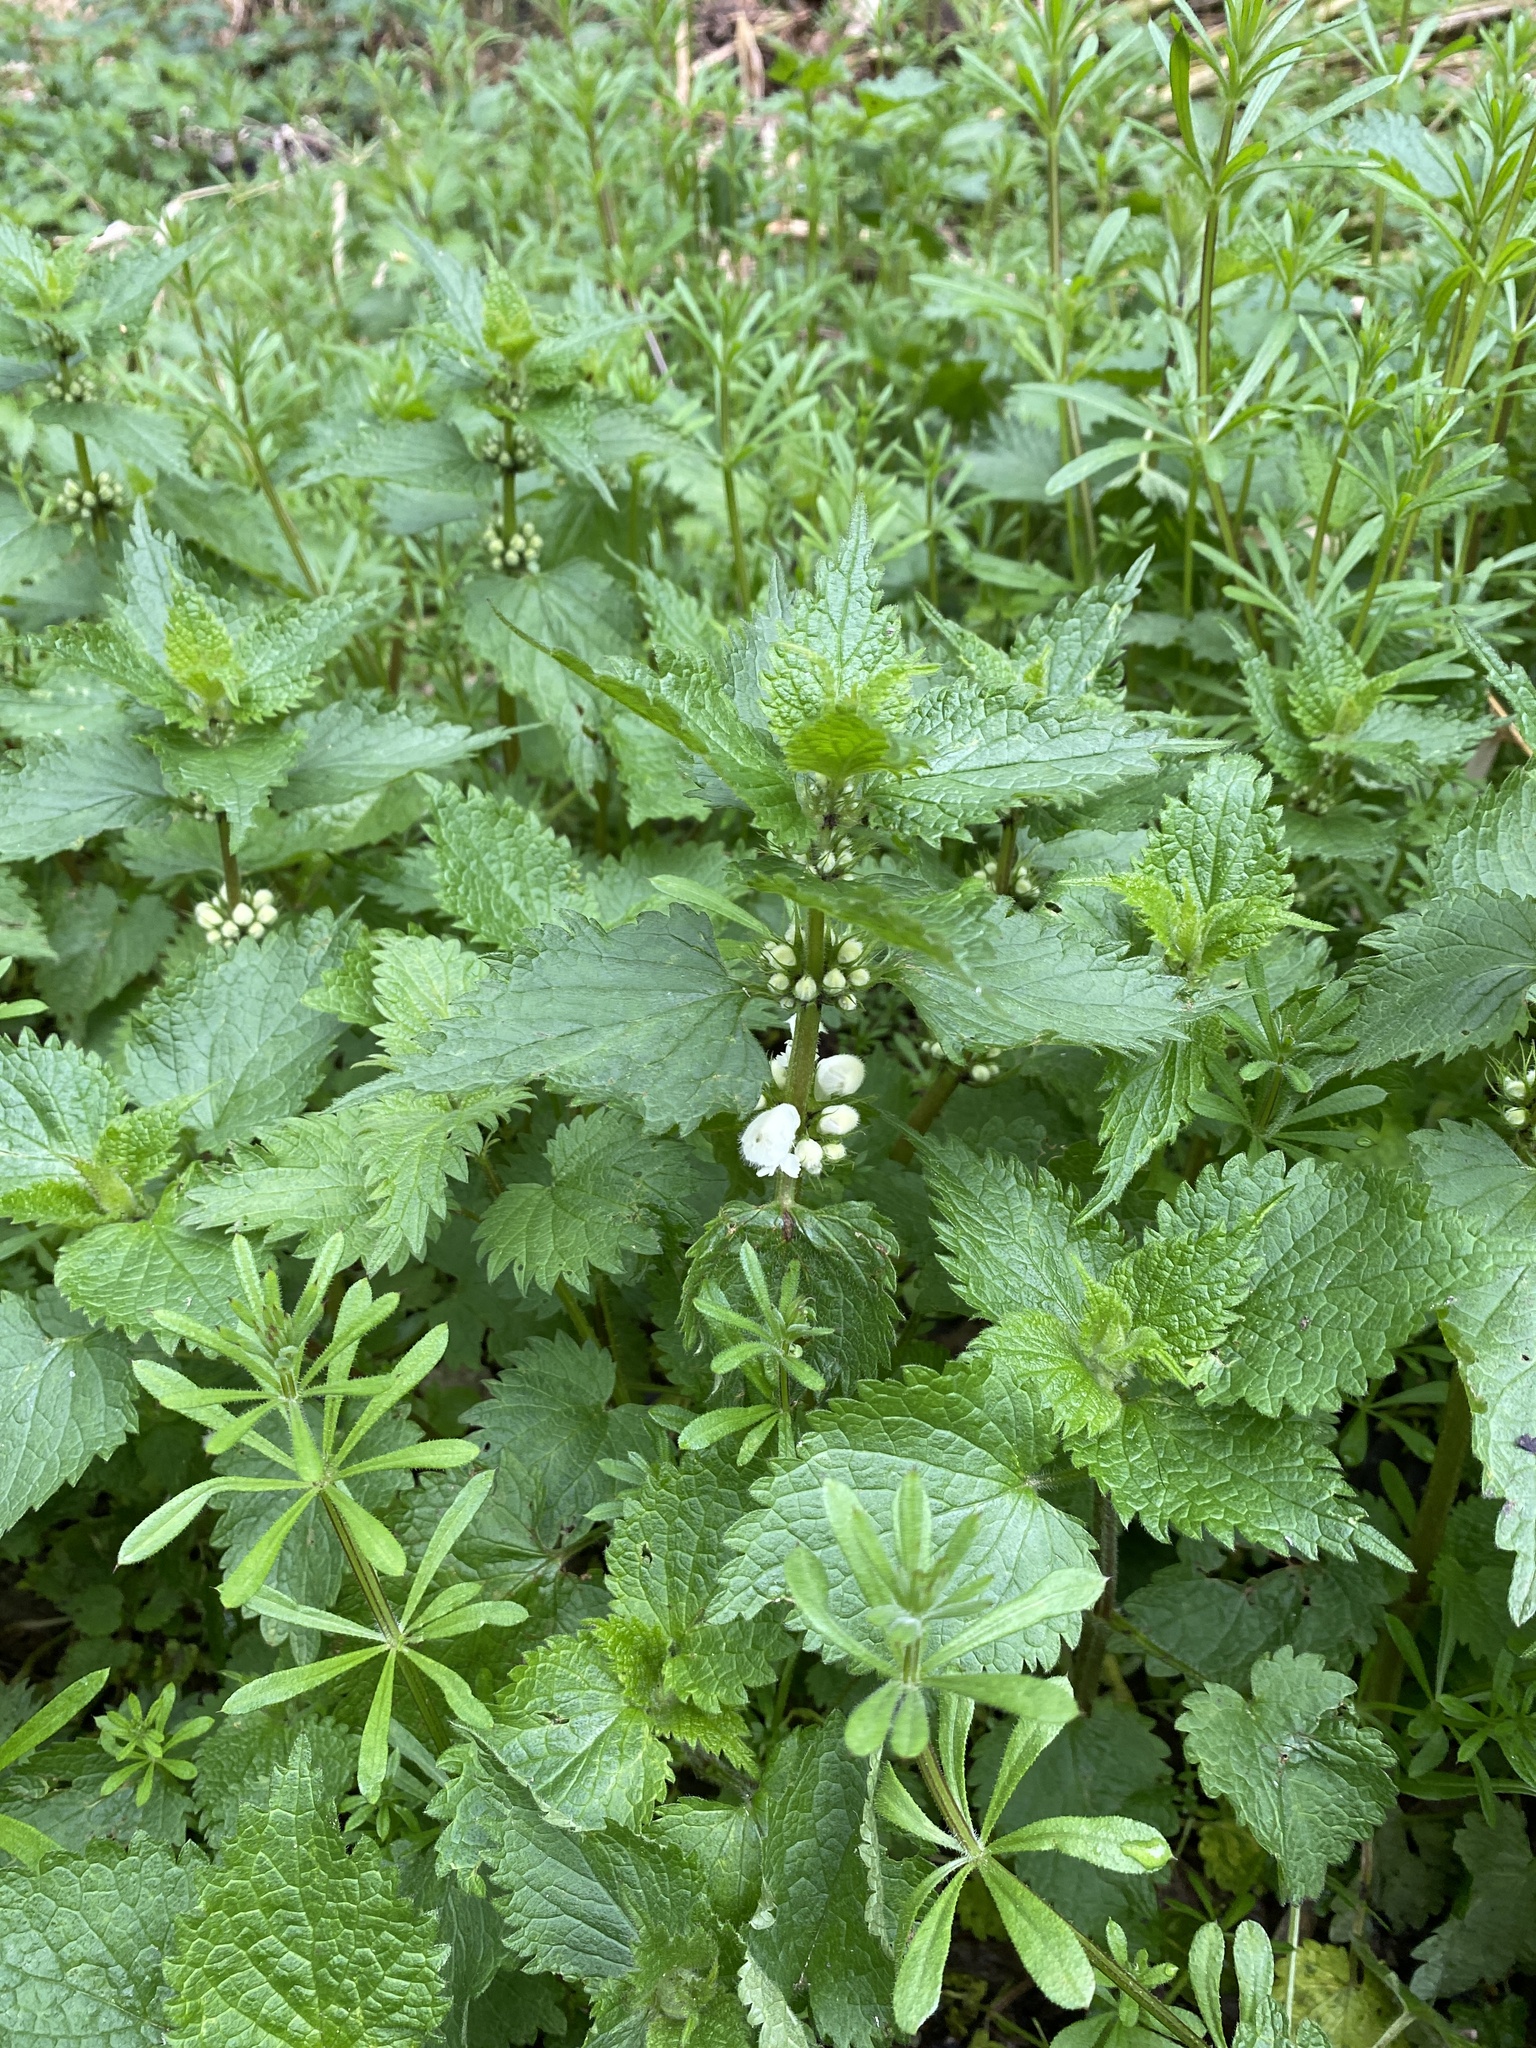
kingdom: Plantae
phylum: Tracheophyta
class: Magnoliopsida
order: Lamiales
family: Lamiaceae
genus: Lamium
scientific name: Lamium album
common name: White dead-nettle
